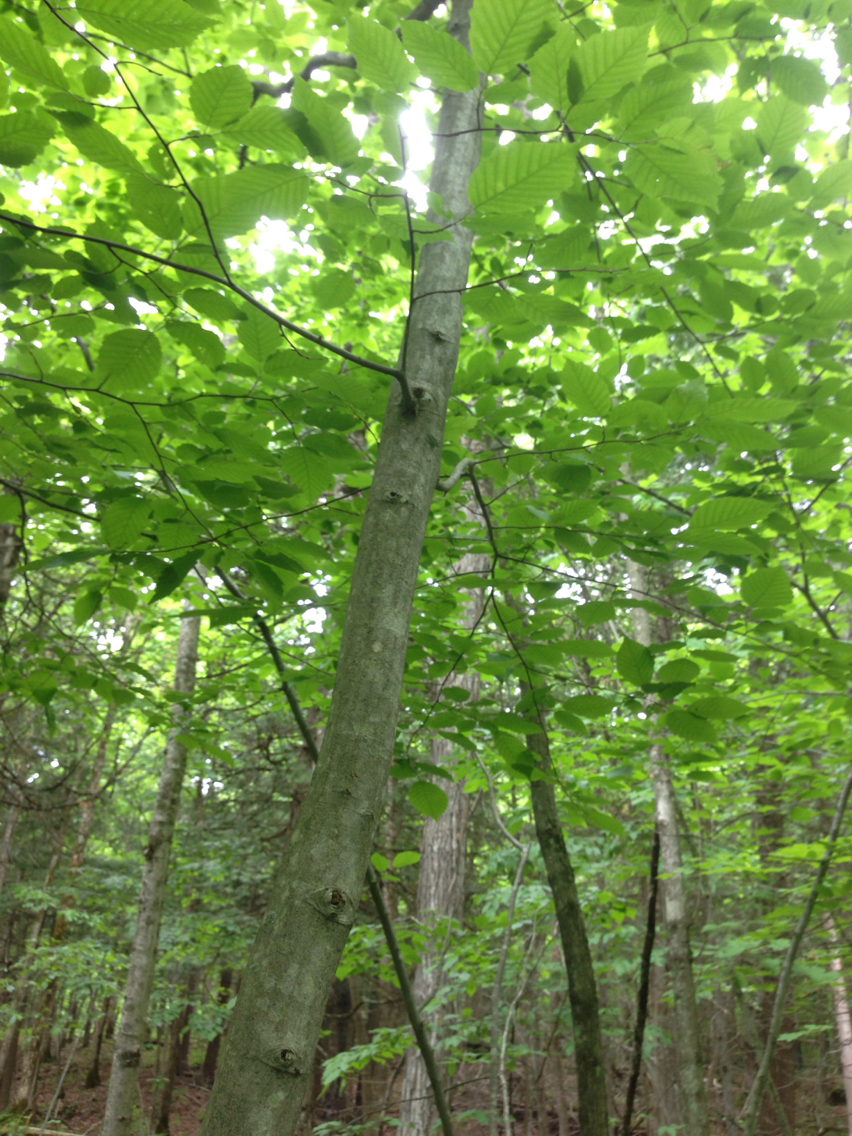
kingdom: Plantae
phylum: Tracheophyta
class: Magnoliopsida
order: Fagales
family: Betulaceae
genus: Carpinus
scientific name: Carpinus caroliniana
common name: American hornbeam
